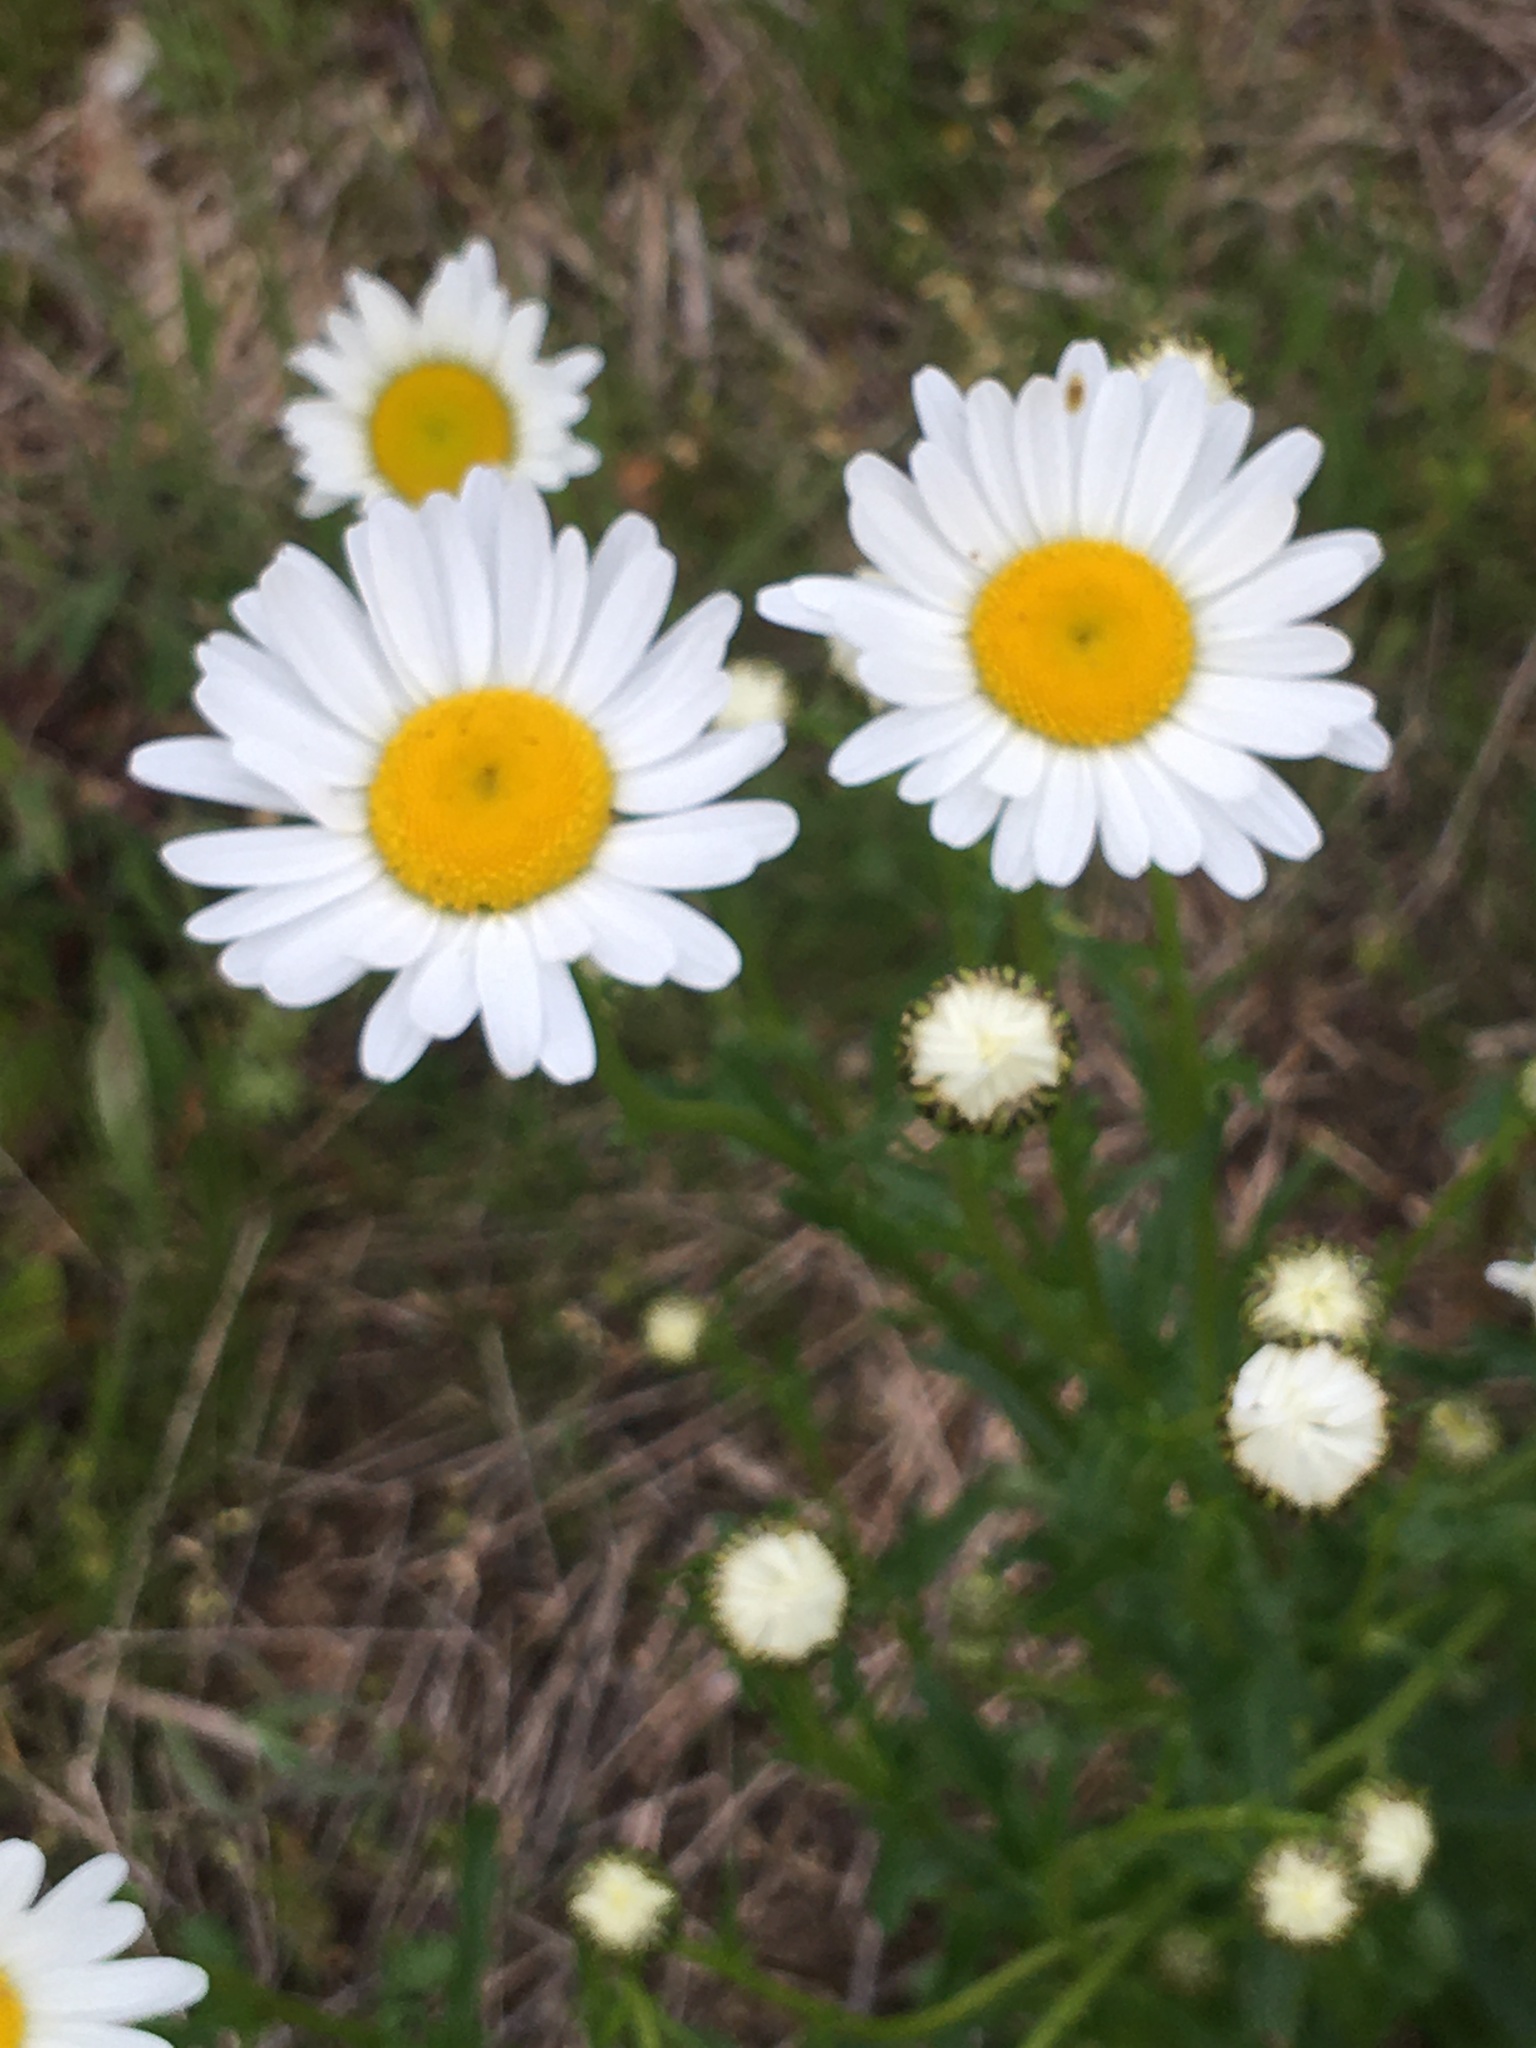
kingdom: Plantae
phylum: Tracheophyta
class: Magnoliopsida
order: Asterales
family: Asteraceae
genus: Leucanthemum
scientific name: Leucanthemum vulgare
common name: Oxeye daisy
